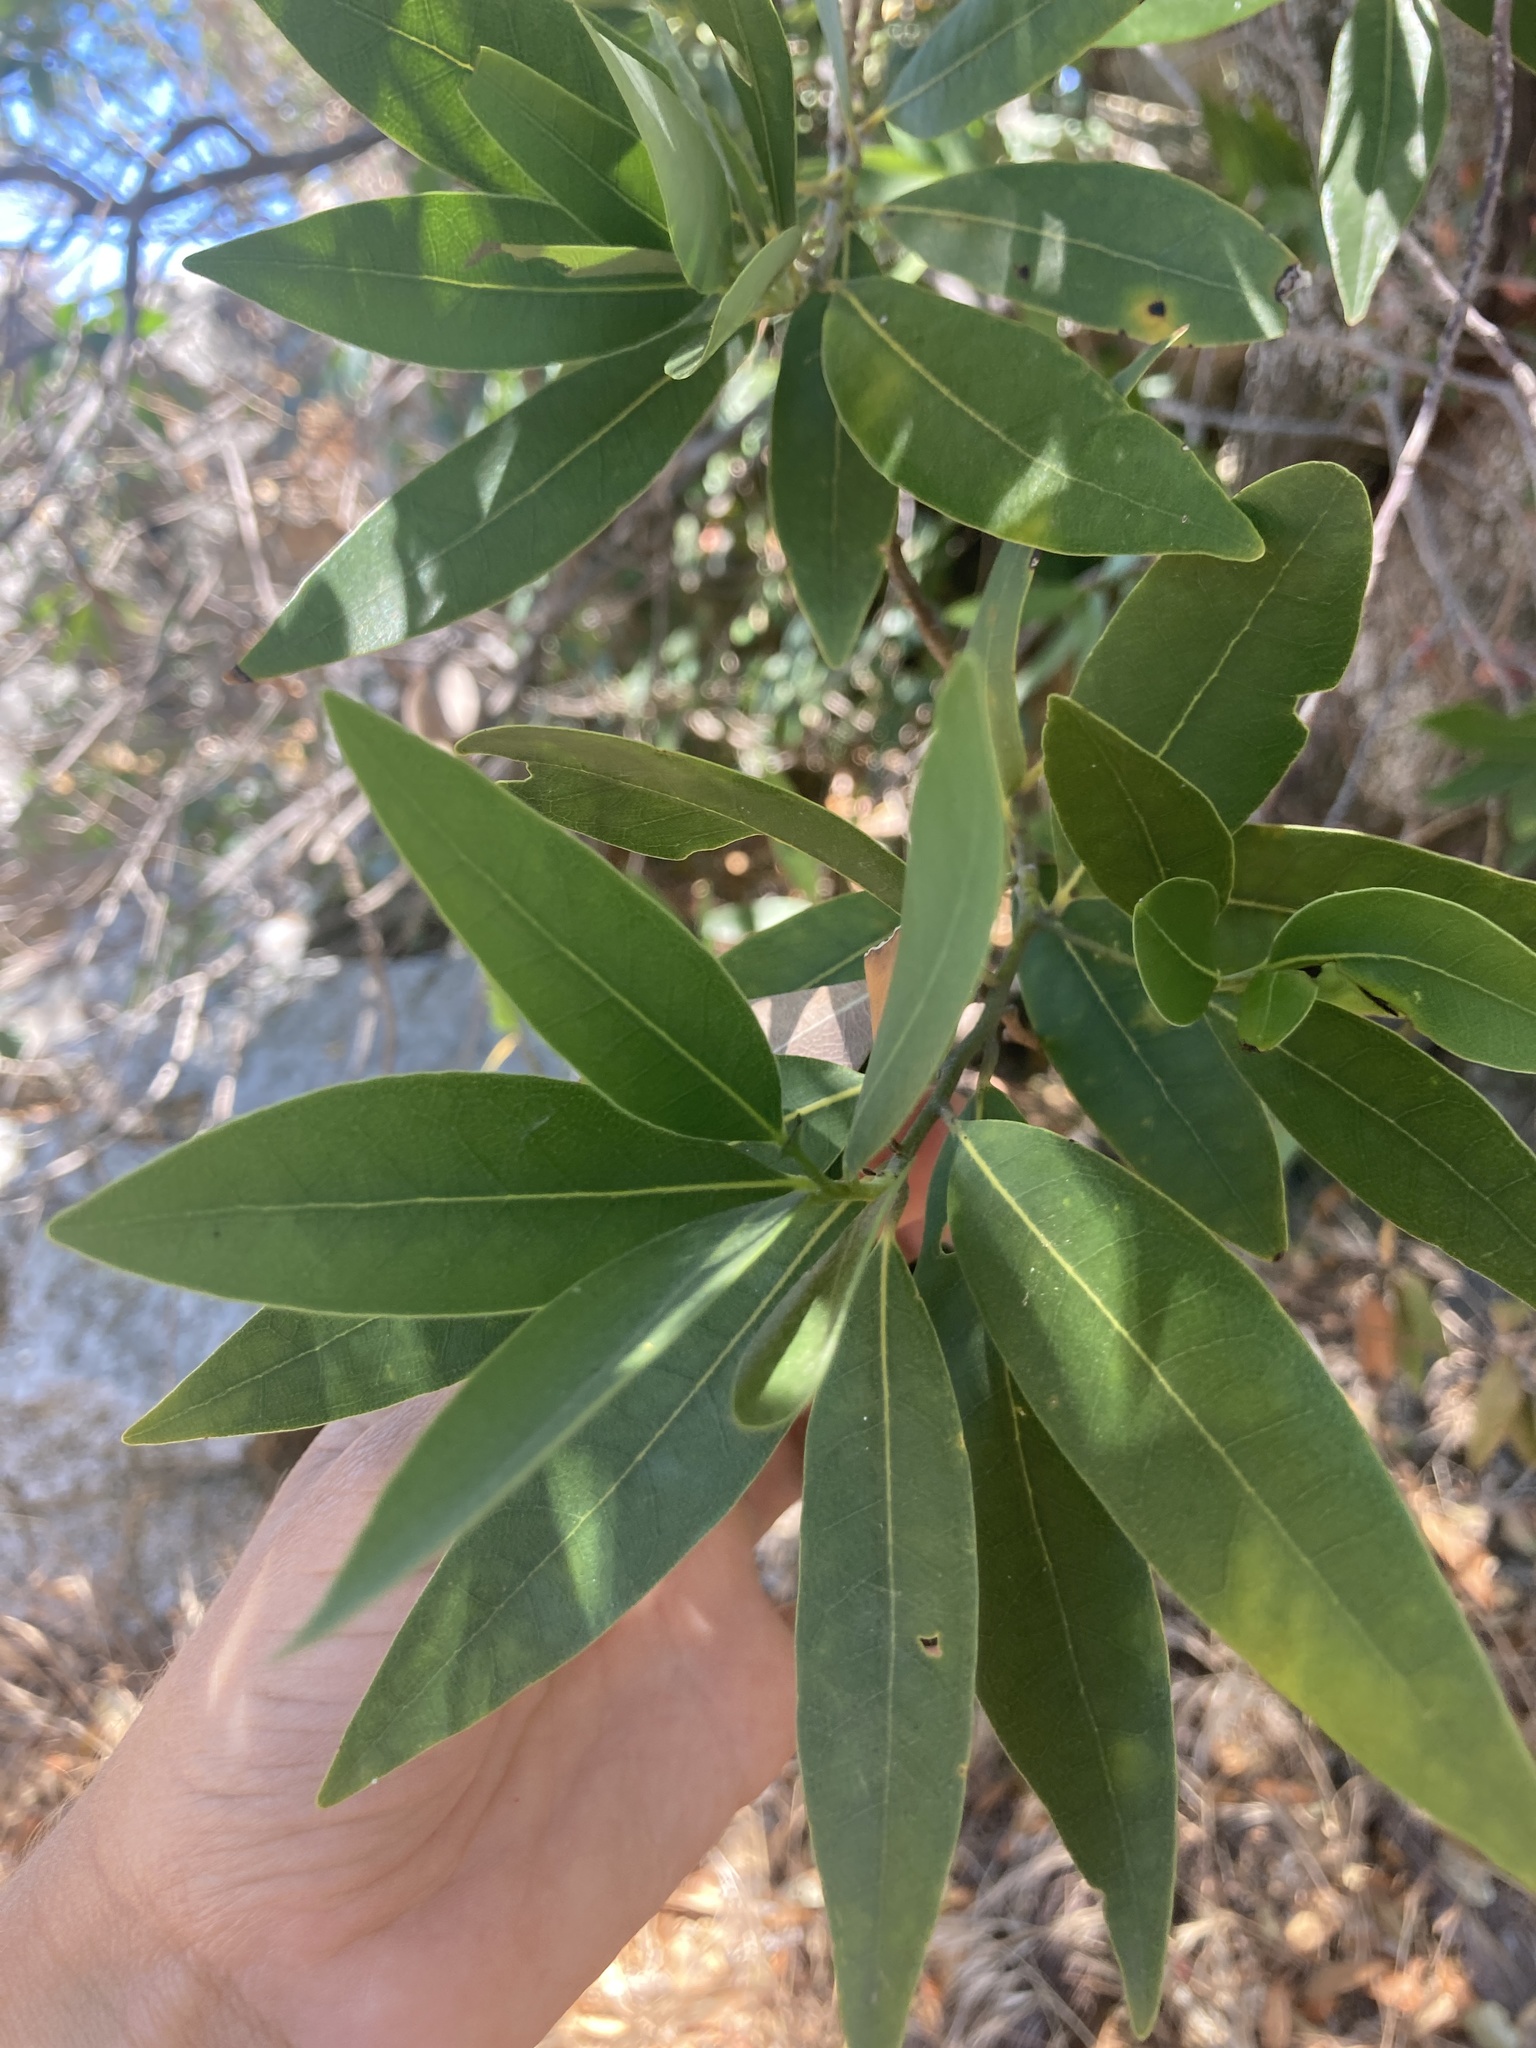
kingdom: Plantae
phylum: Tracheophyta
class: Magnoliopsida
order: Laurales
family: Lauraceae
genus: Umbellularia
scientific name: Umbellularia californica
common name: California bay
